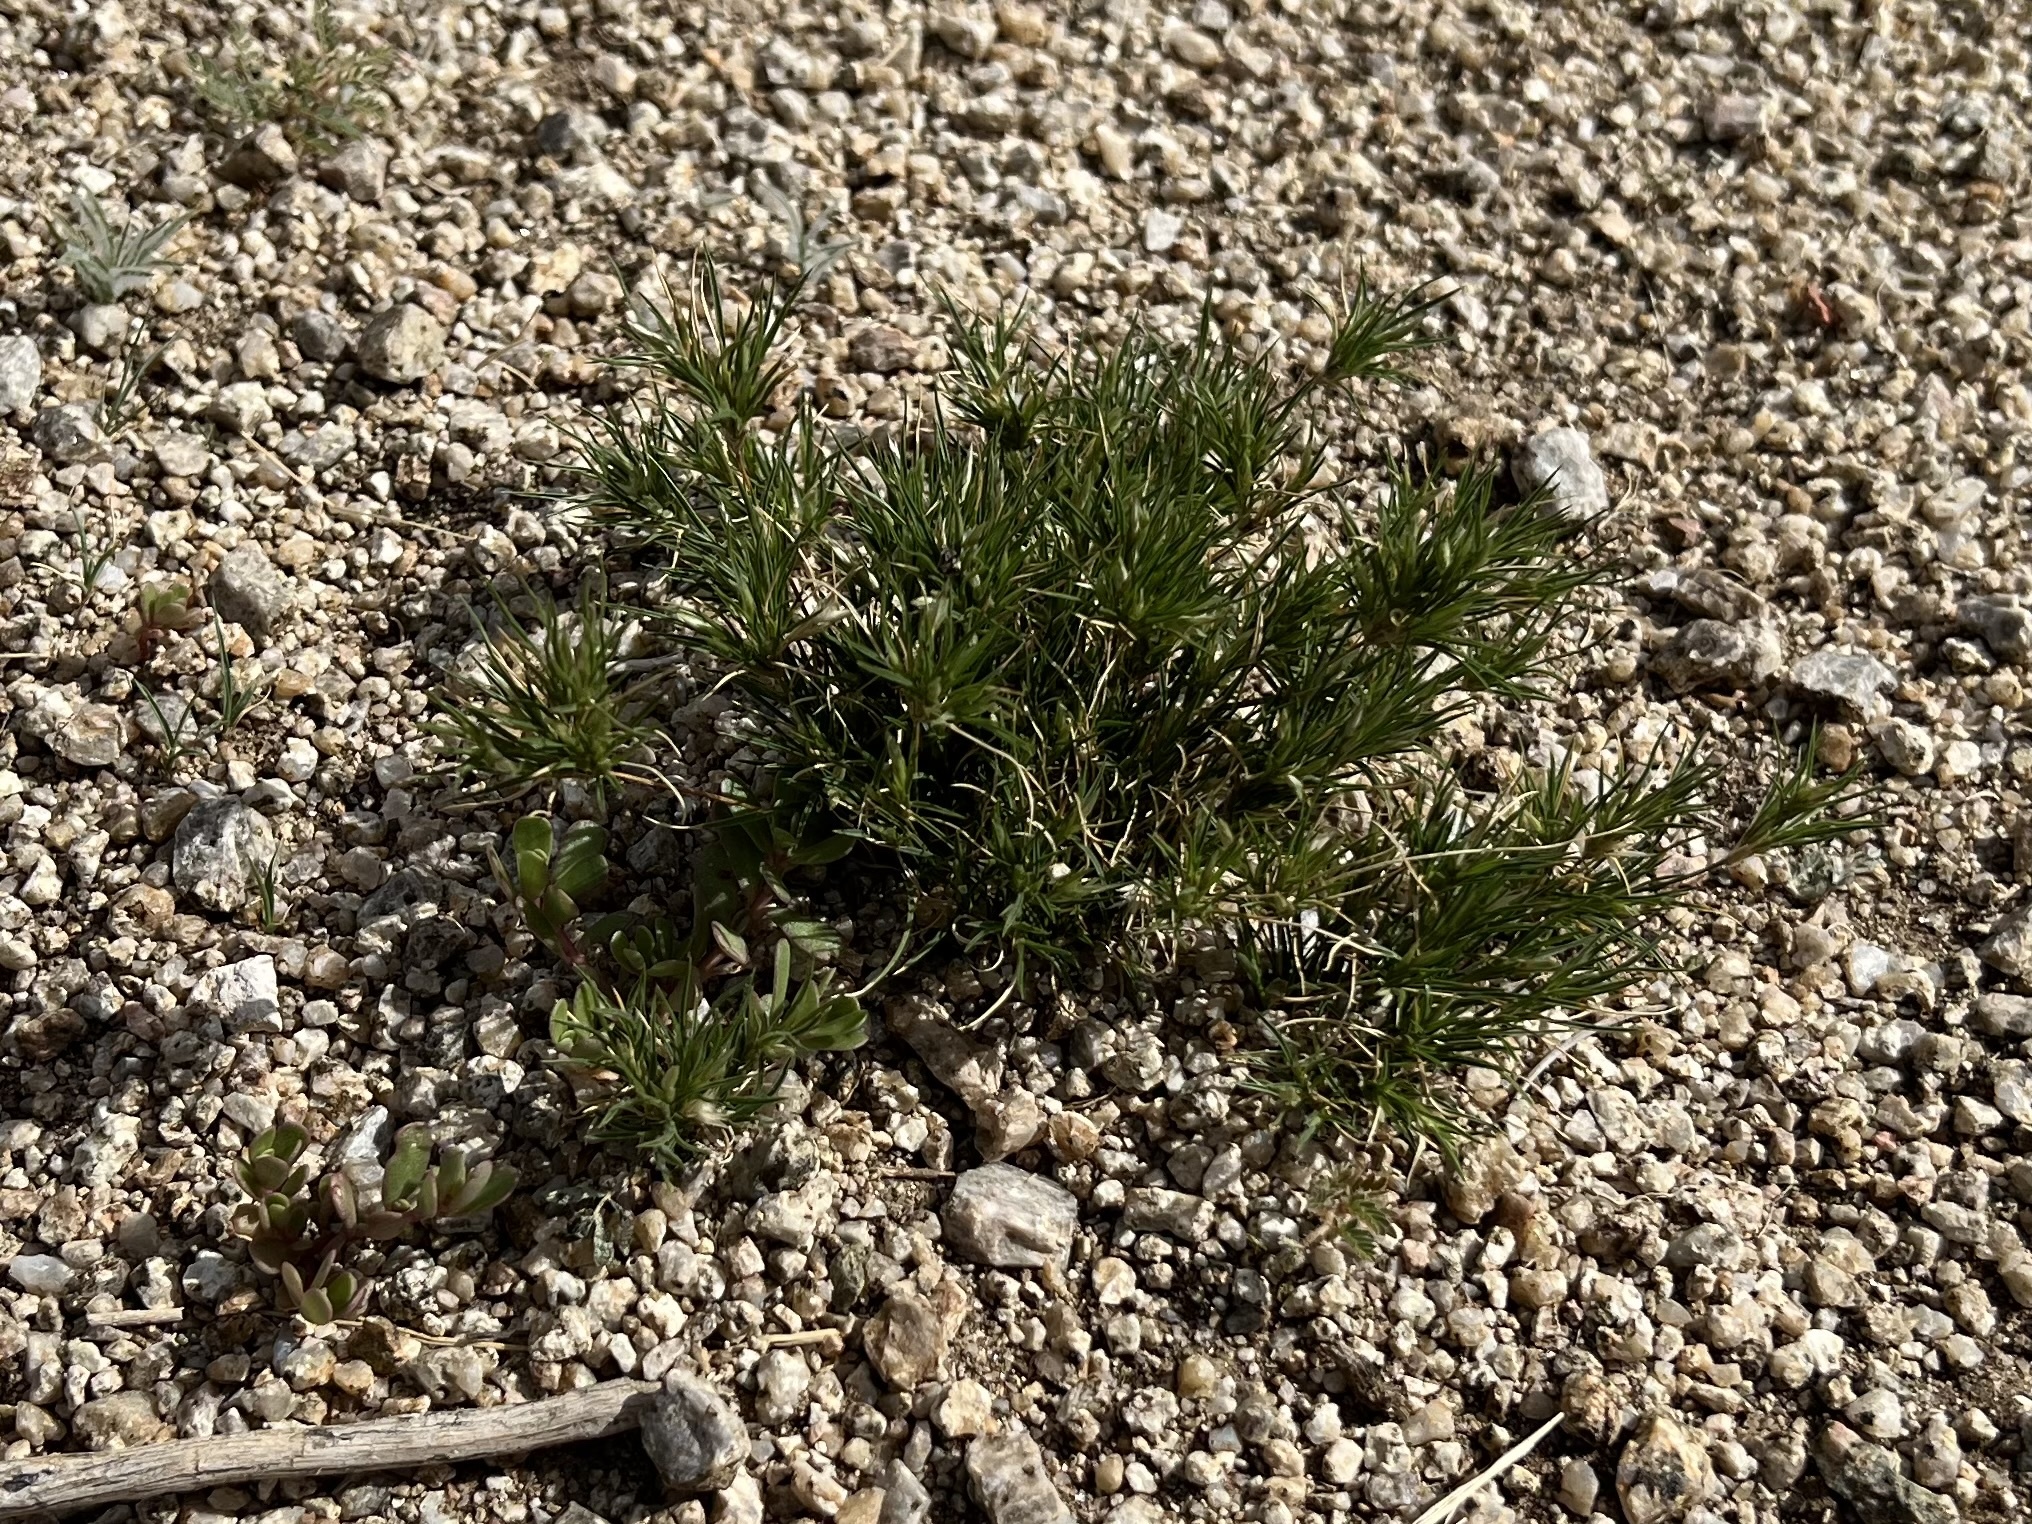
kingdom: Plantae
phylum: Tracheophyta
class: Liliopsida
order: Poales
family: Poaceae
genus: Dasyochloa
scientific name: Dasyochloa pulchella
